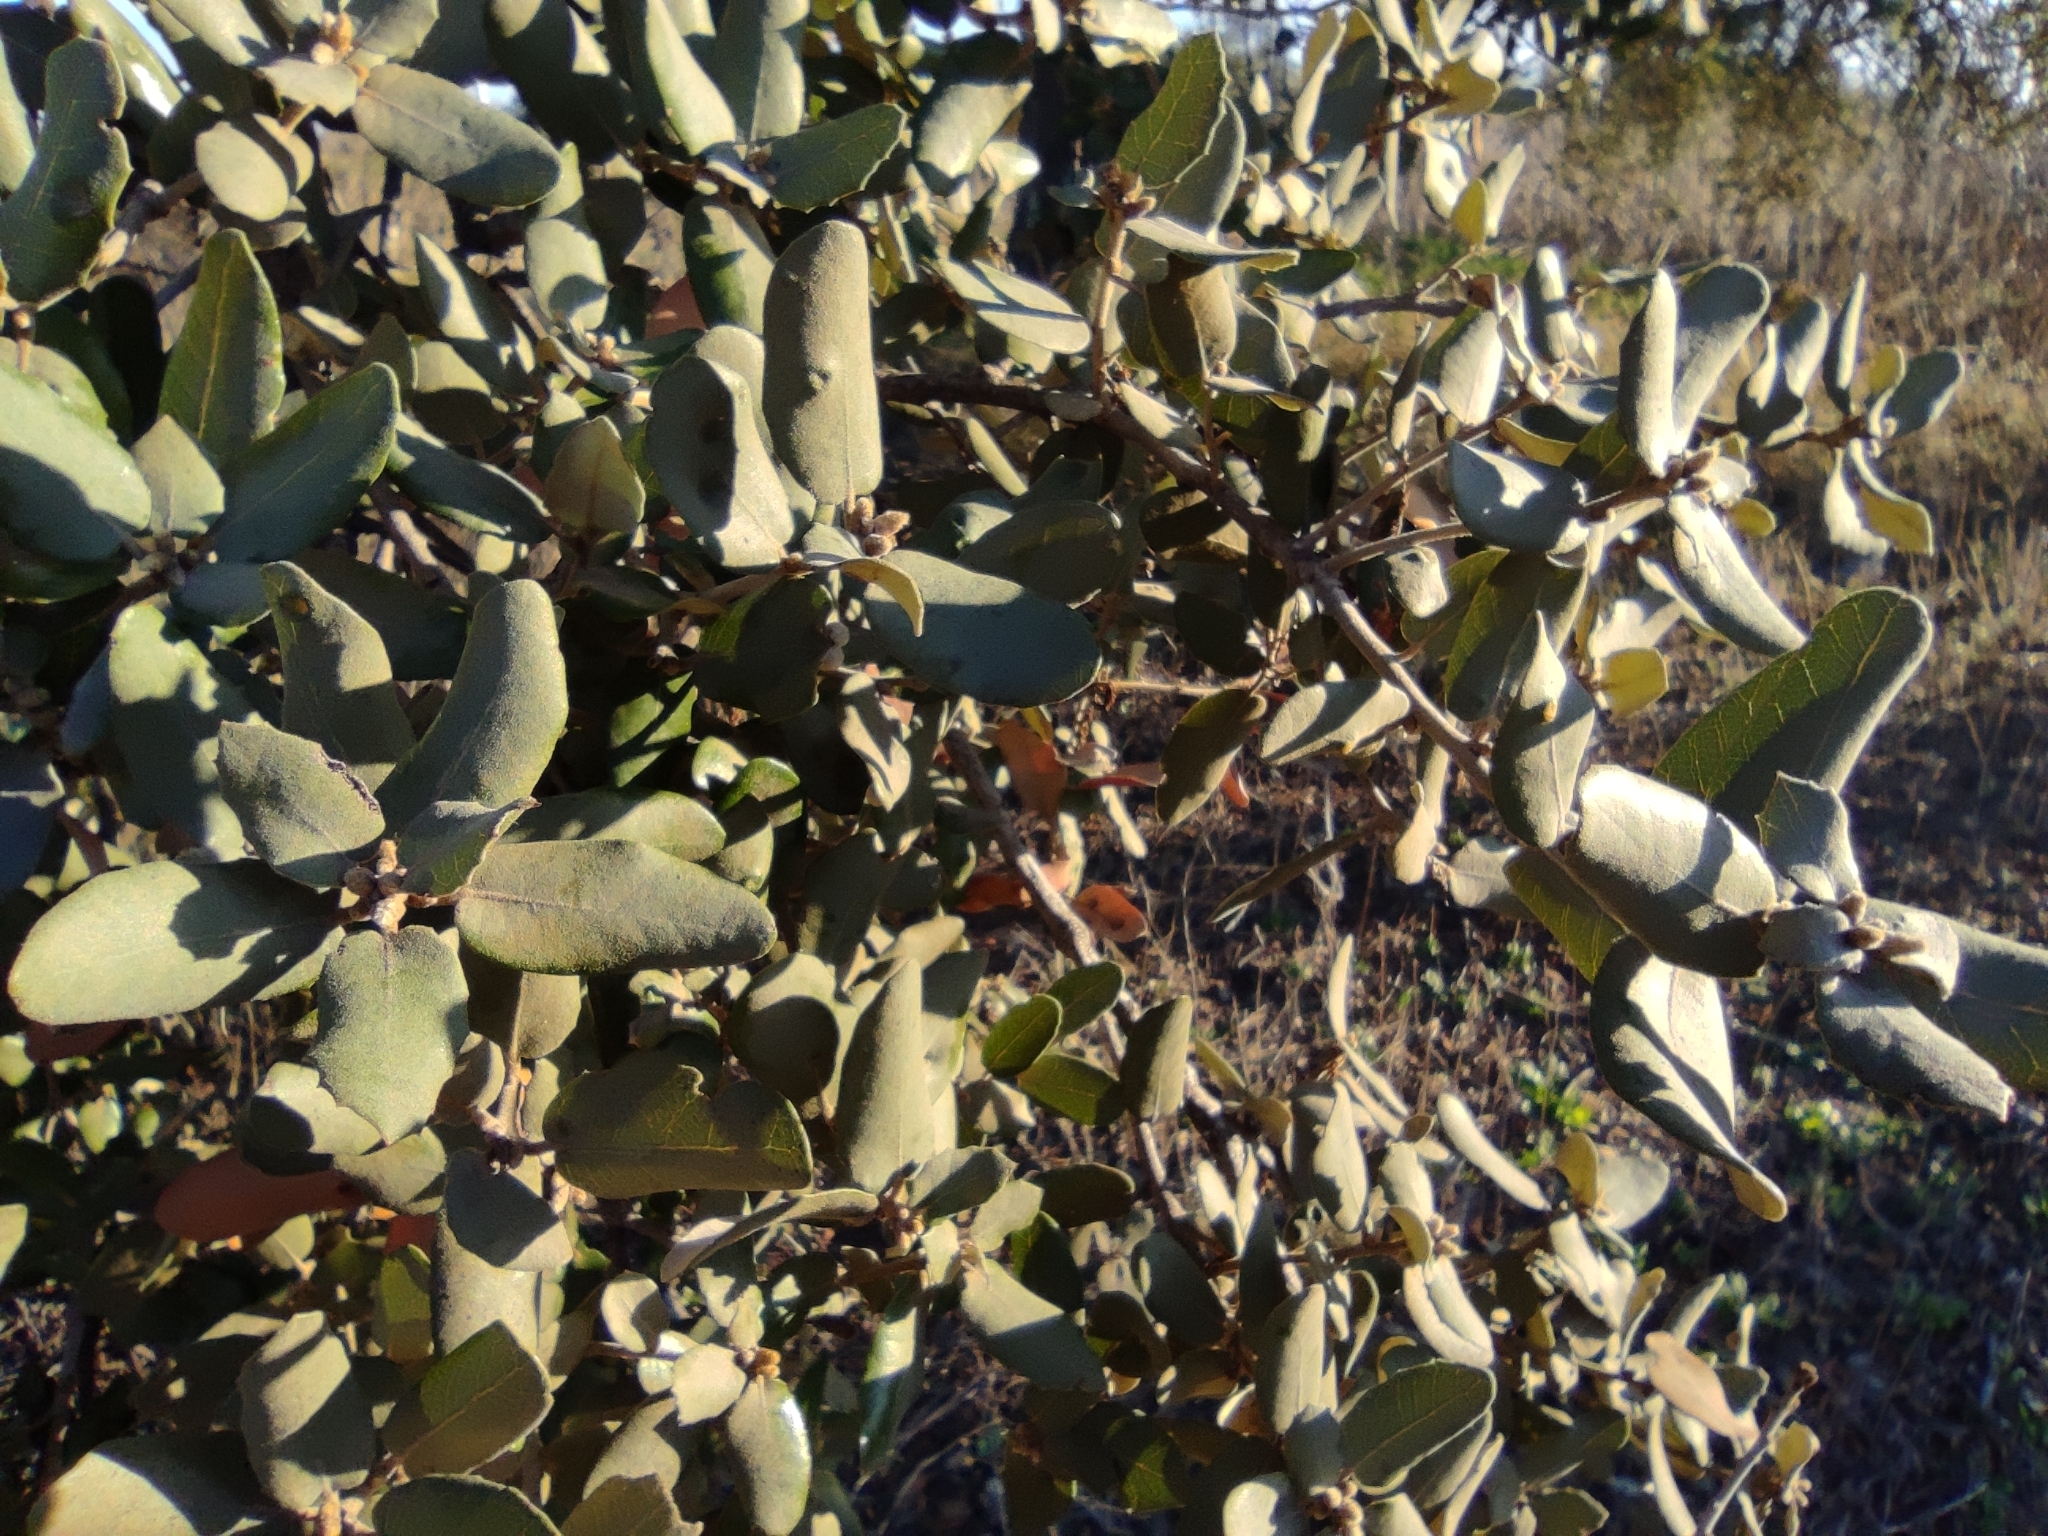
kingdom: Plantae
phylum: Tracheophyta
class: Magnoliopsida
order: Fagales
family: Fagaceae
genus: Quercus
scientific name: Quercus rotundifolia
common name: Holm oak
